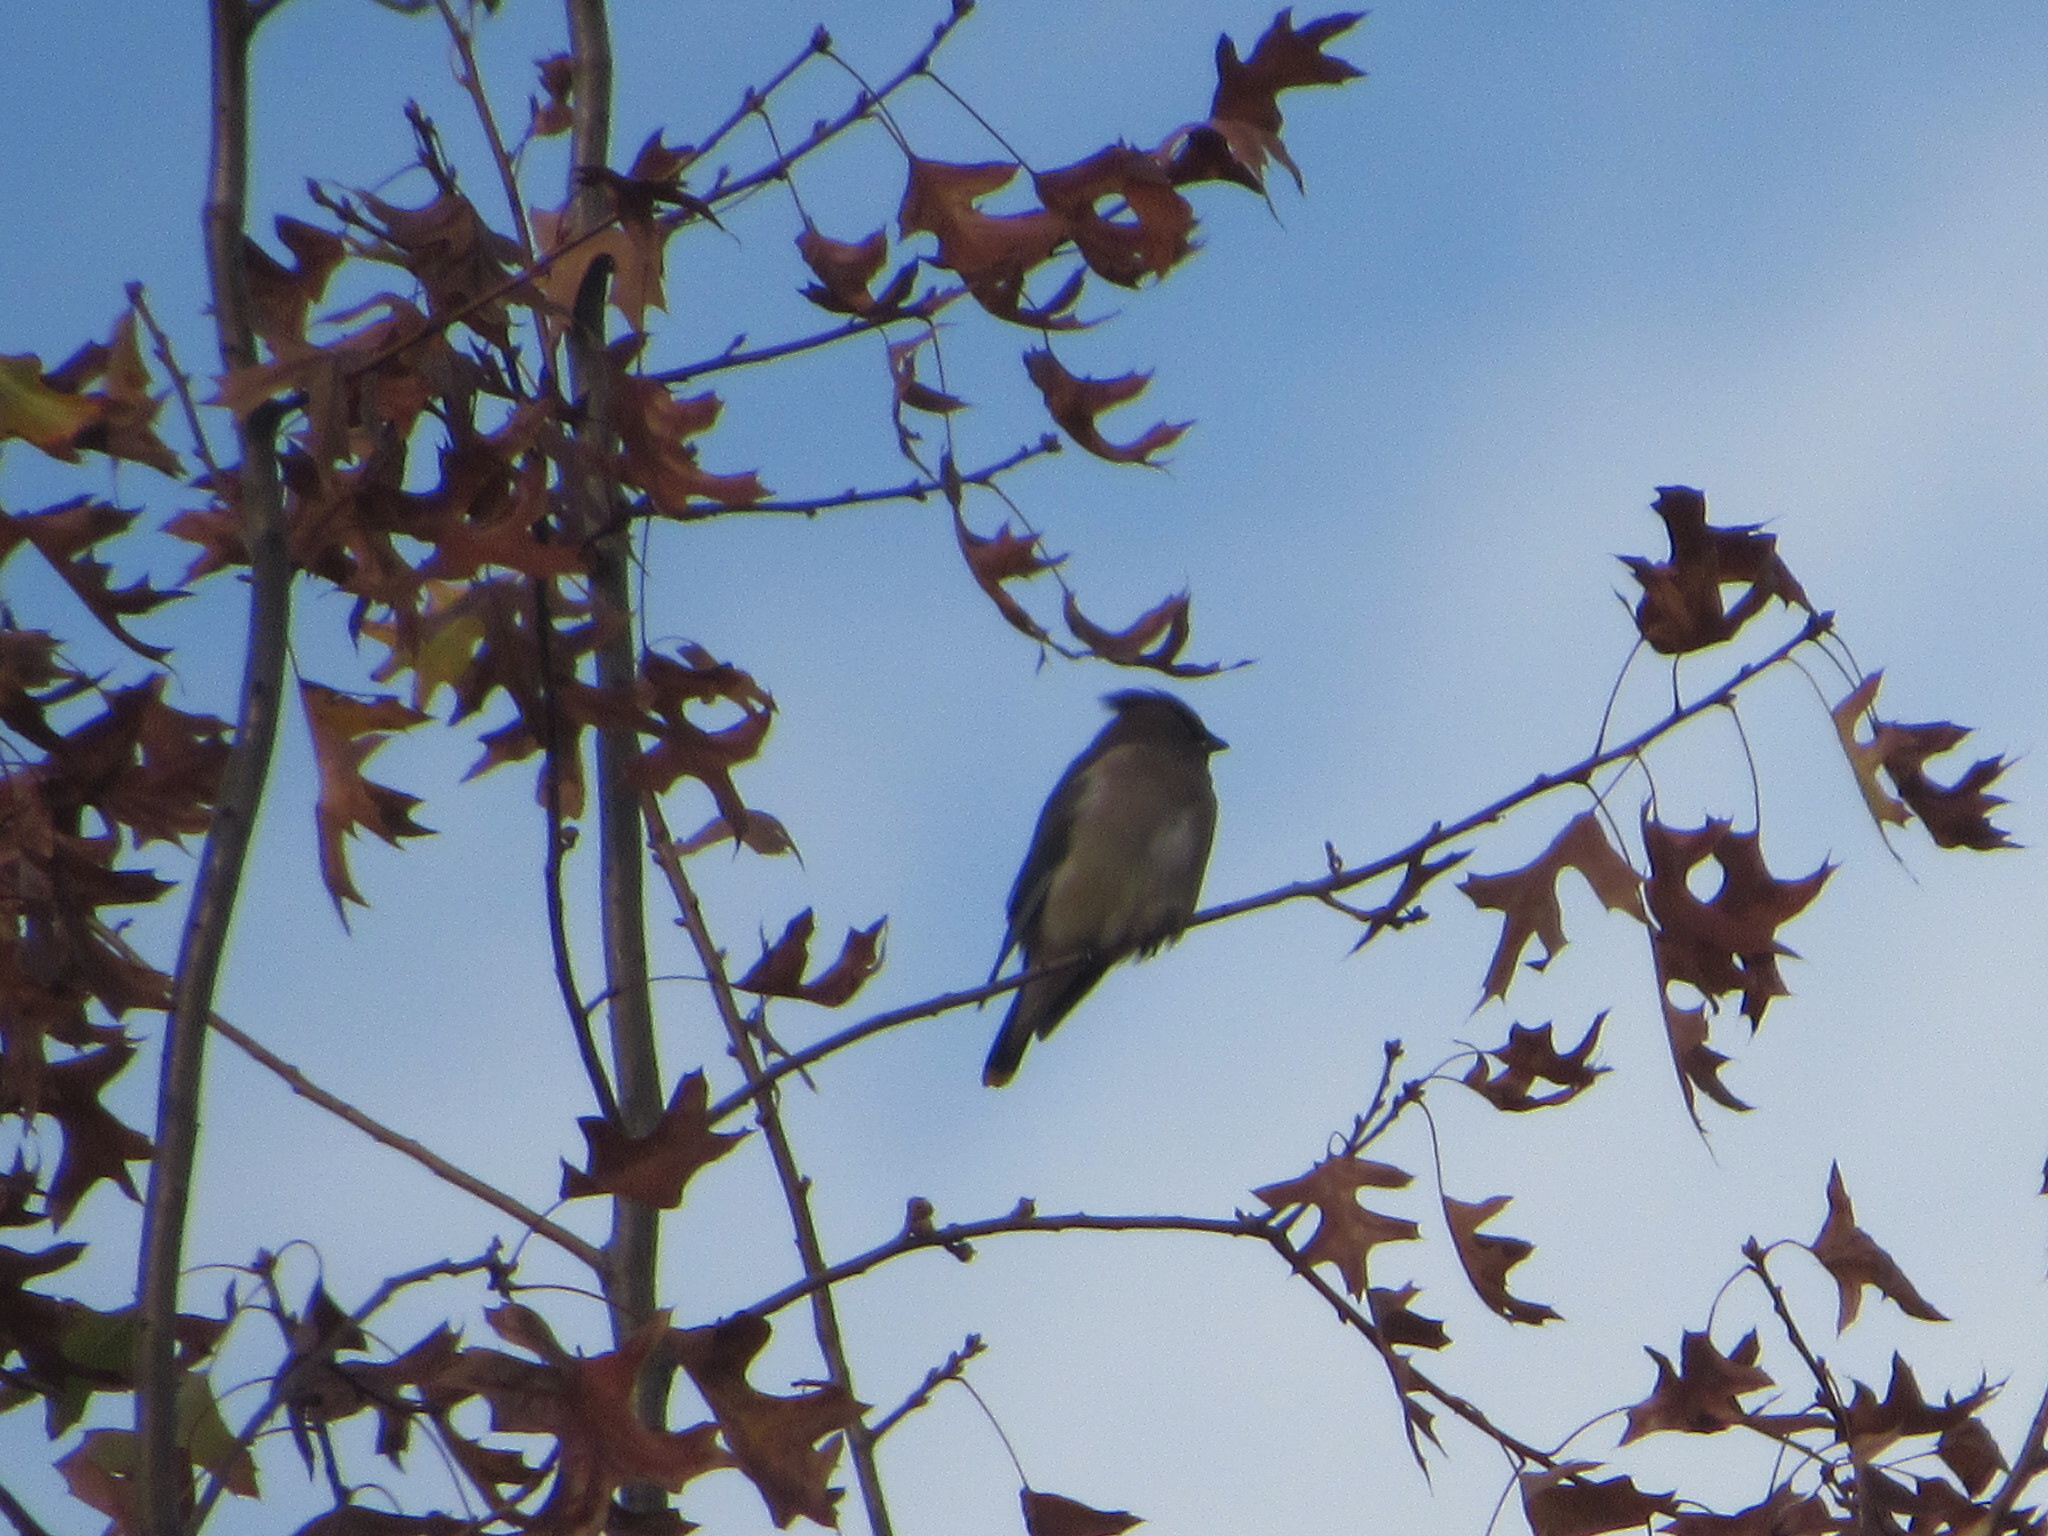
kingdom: Animalia
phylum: Chordata
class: Aves
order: Passeriformes
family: Bombycillidae
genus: Bombycilla
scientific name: Bombycilla cedrorum
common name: Cedar waxwing
